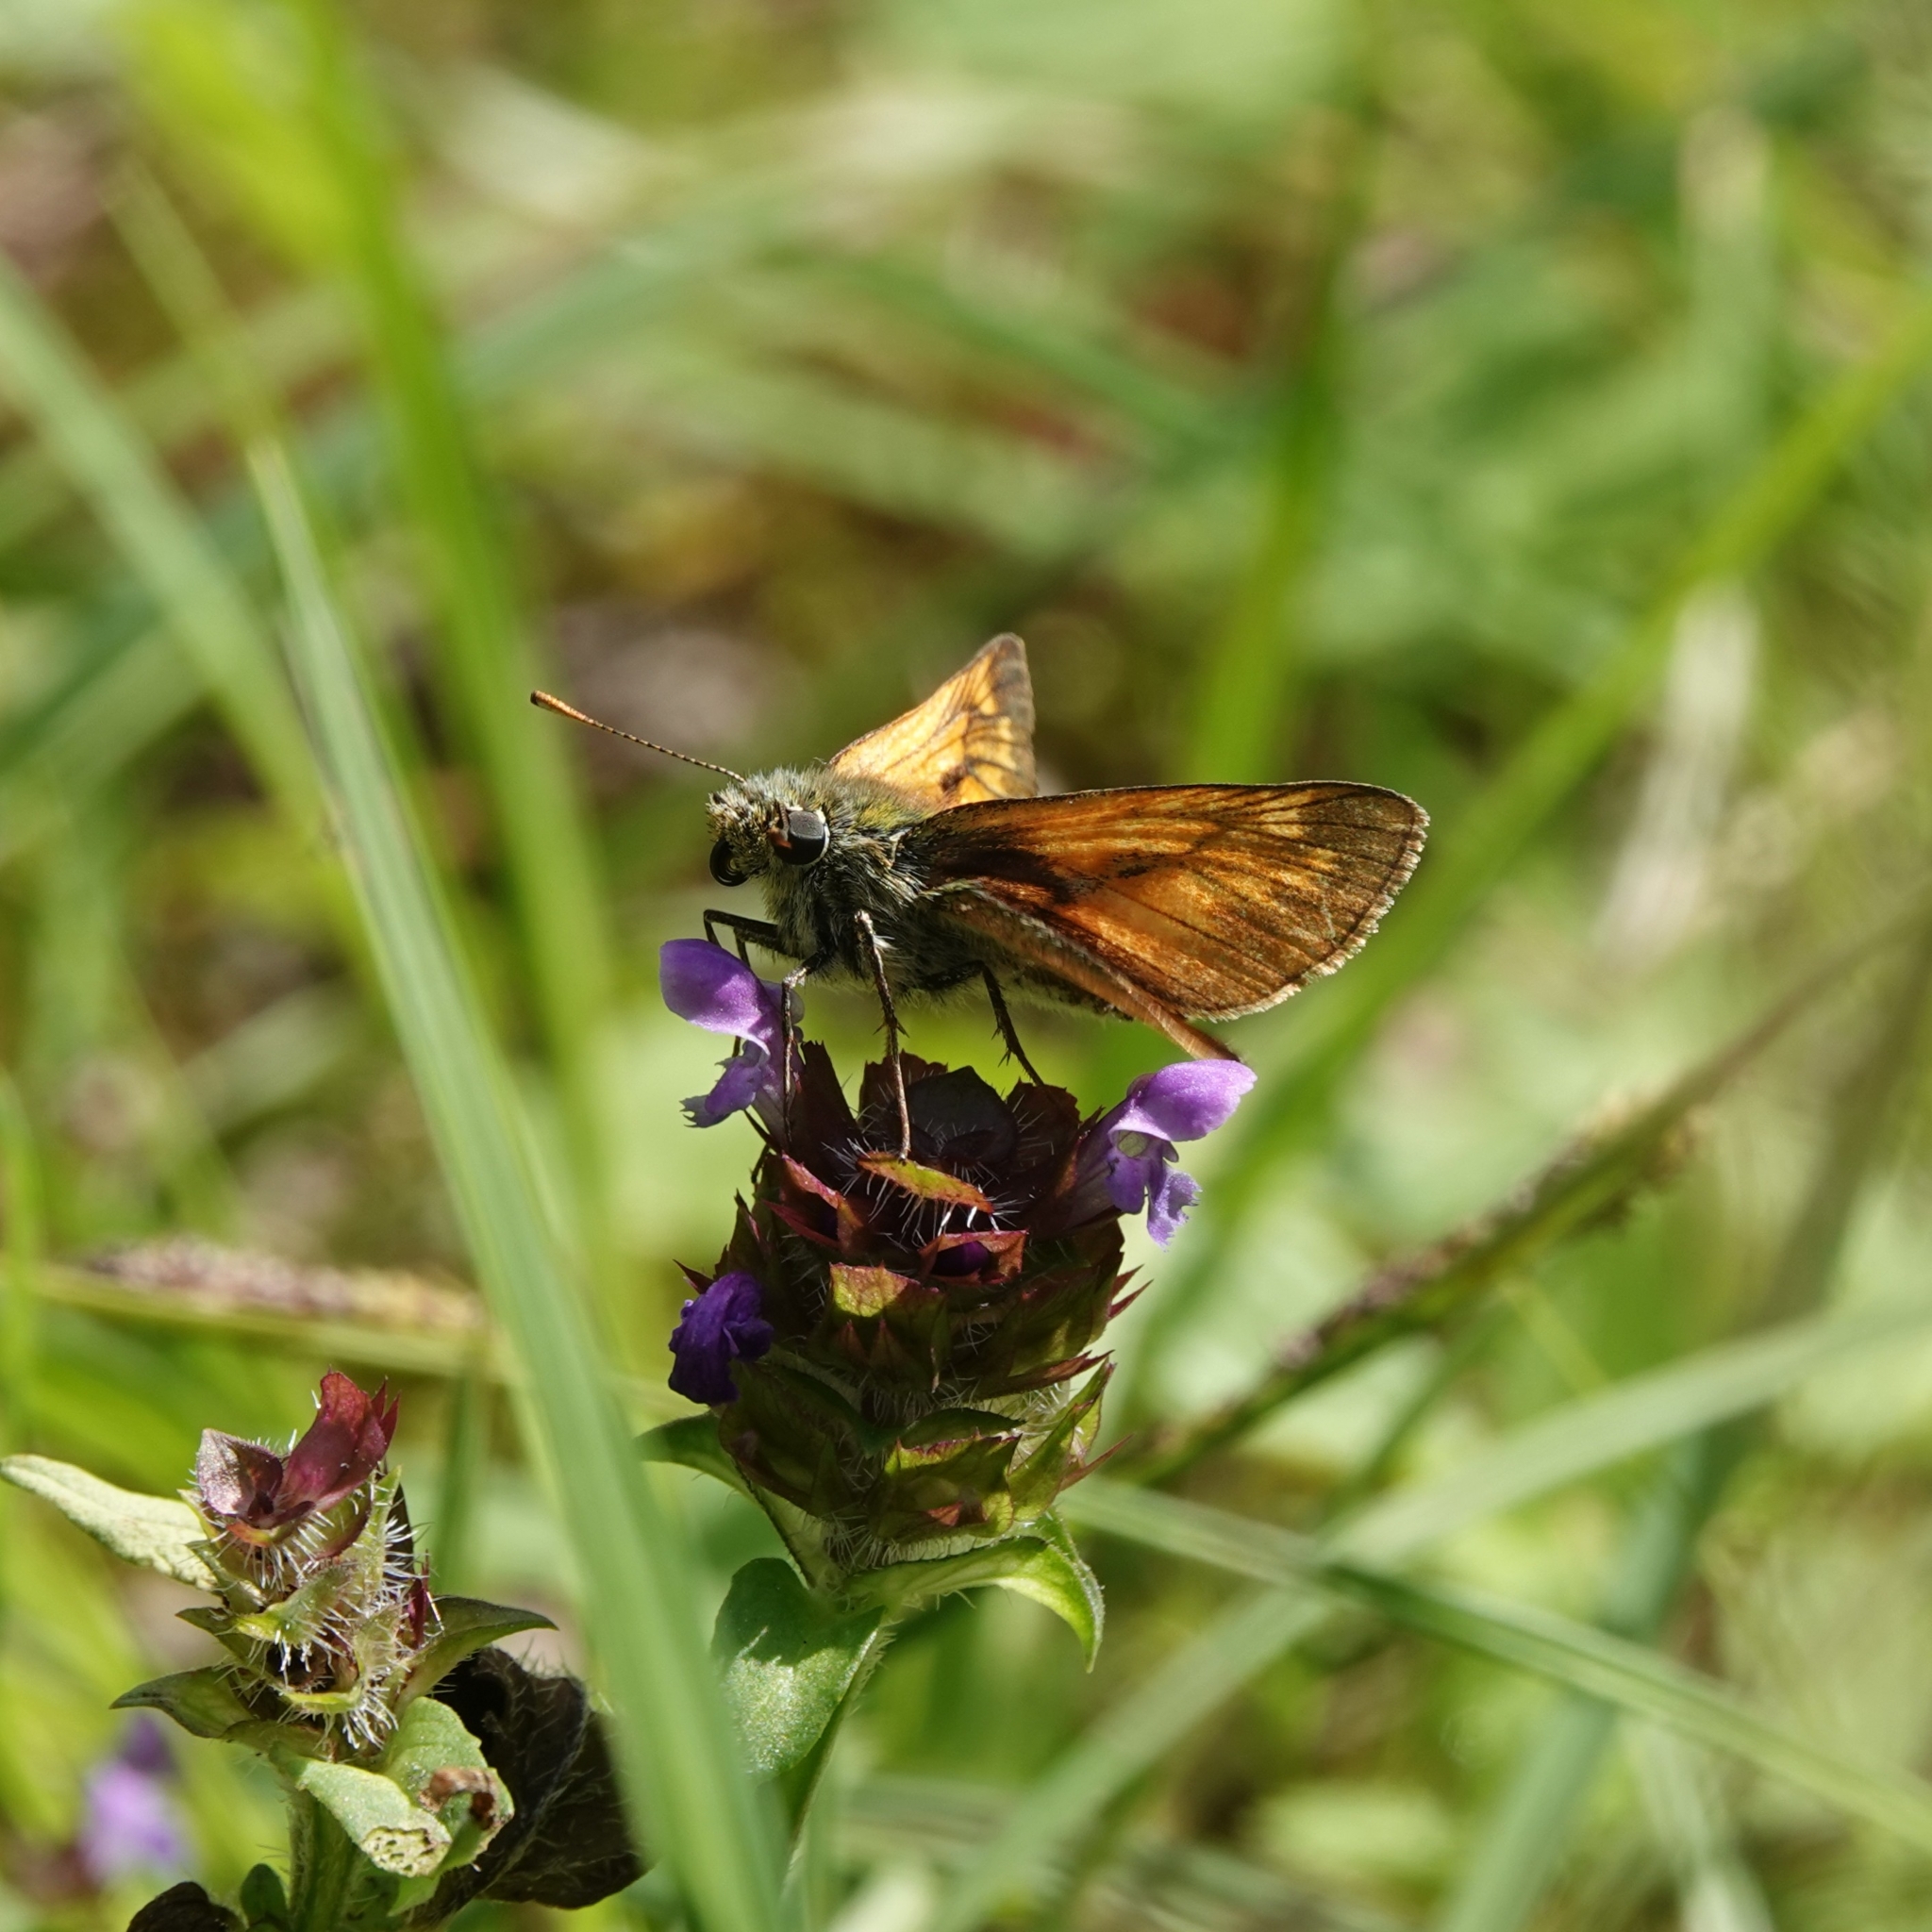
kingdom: Animalia
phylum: Arthropoda
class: Insecta
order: Lepidoptera
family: Hesperiidae
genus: Ochlodes
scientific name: Ochlodes venata
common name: Large skipper
